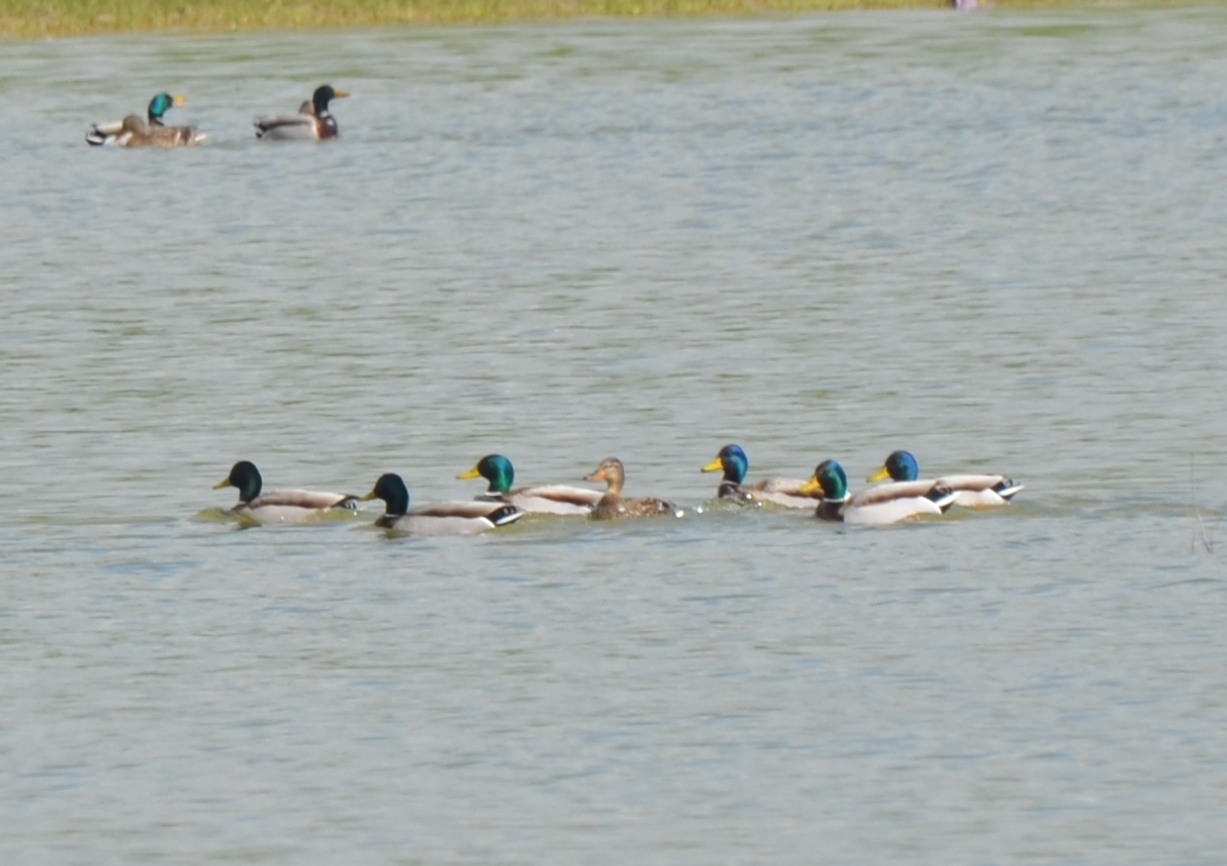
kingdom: Animalia
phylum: Chordata
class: Aves
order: Anseriformes
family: Anatidae
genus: Anas
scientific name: Anas platyrhynchos
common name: Mallard
